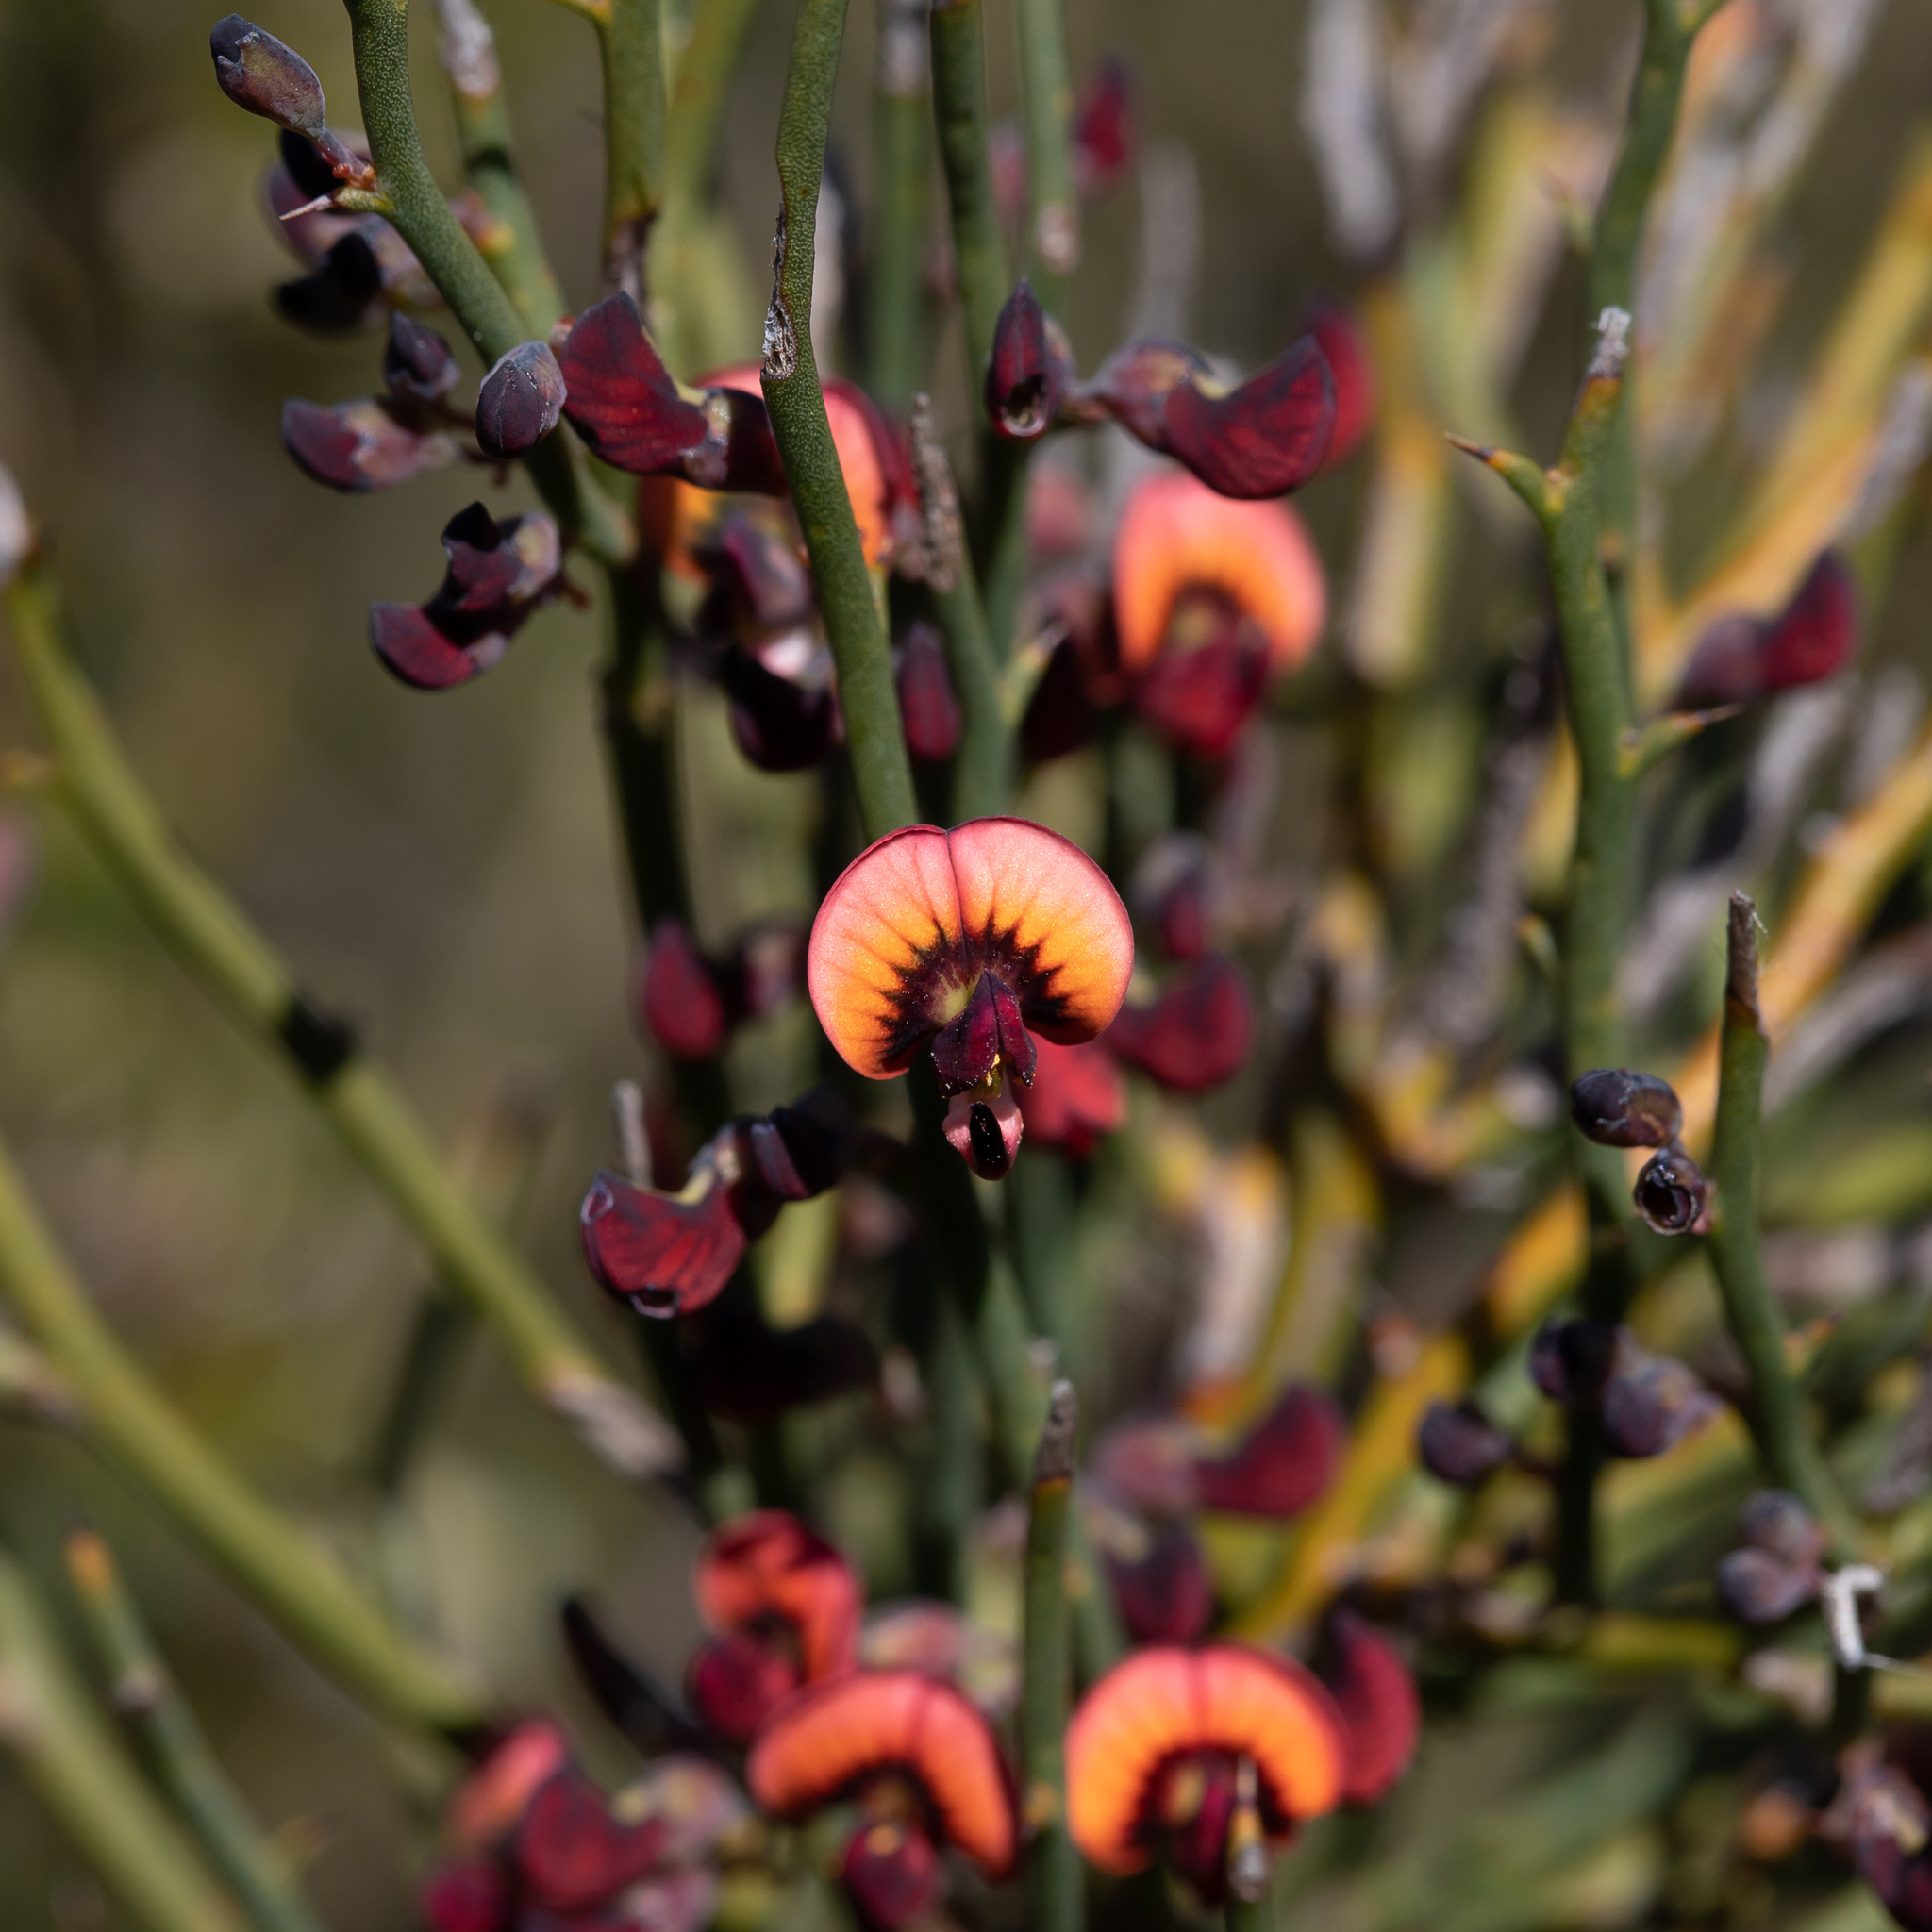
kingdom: Plantae
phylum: Tracheophyta
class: Magnoliopsida
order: Fabales
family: Fabaceae
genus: Daviesia
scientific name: Daviesia brevifolia
